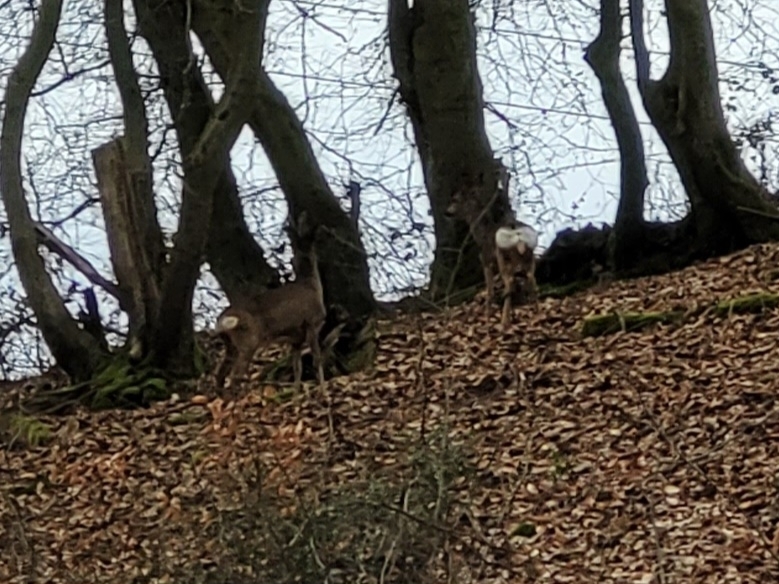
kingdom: Animalia
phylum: Chordata
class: Mammalia
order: Artiodactyla
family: Cervidae
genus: Capreolus
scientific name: Capreolus capreolus
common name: Western roe deer
